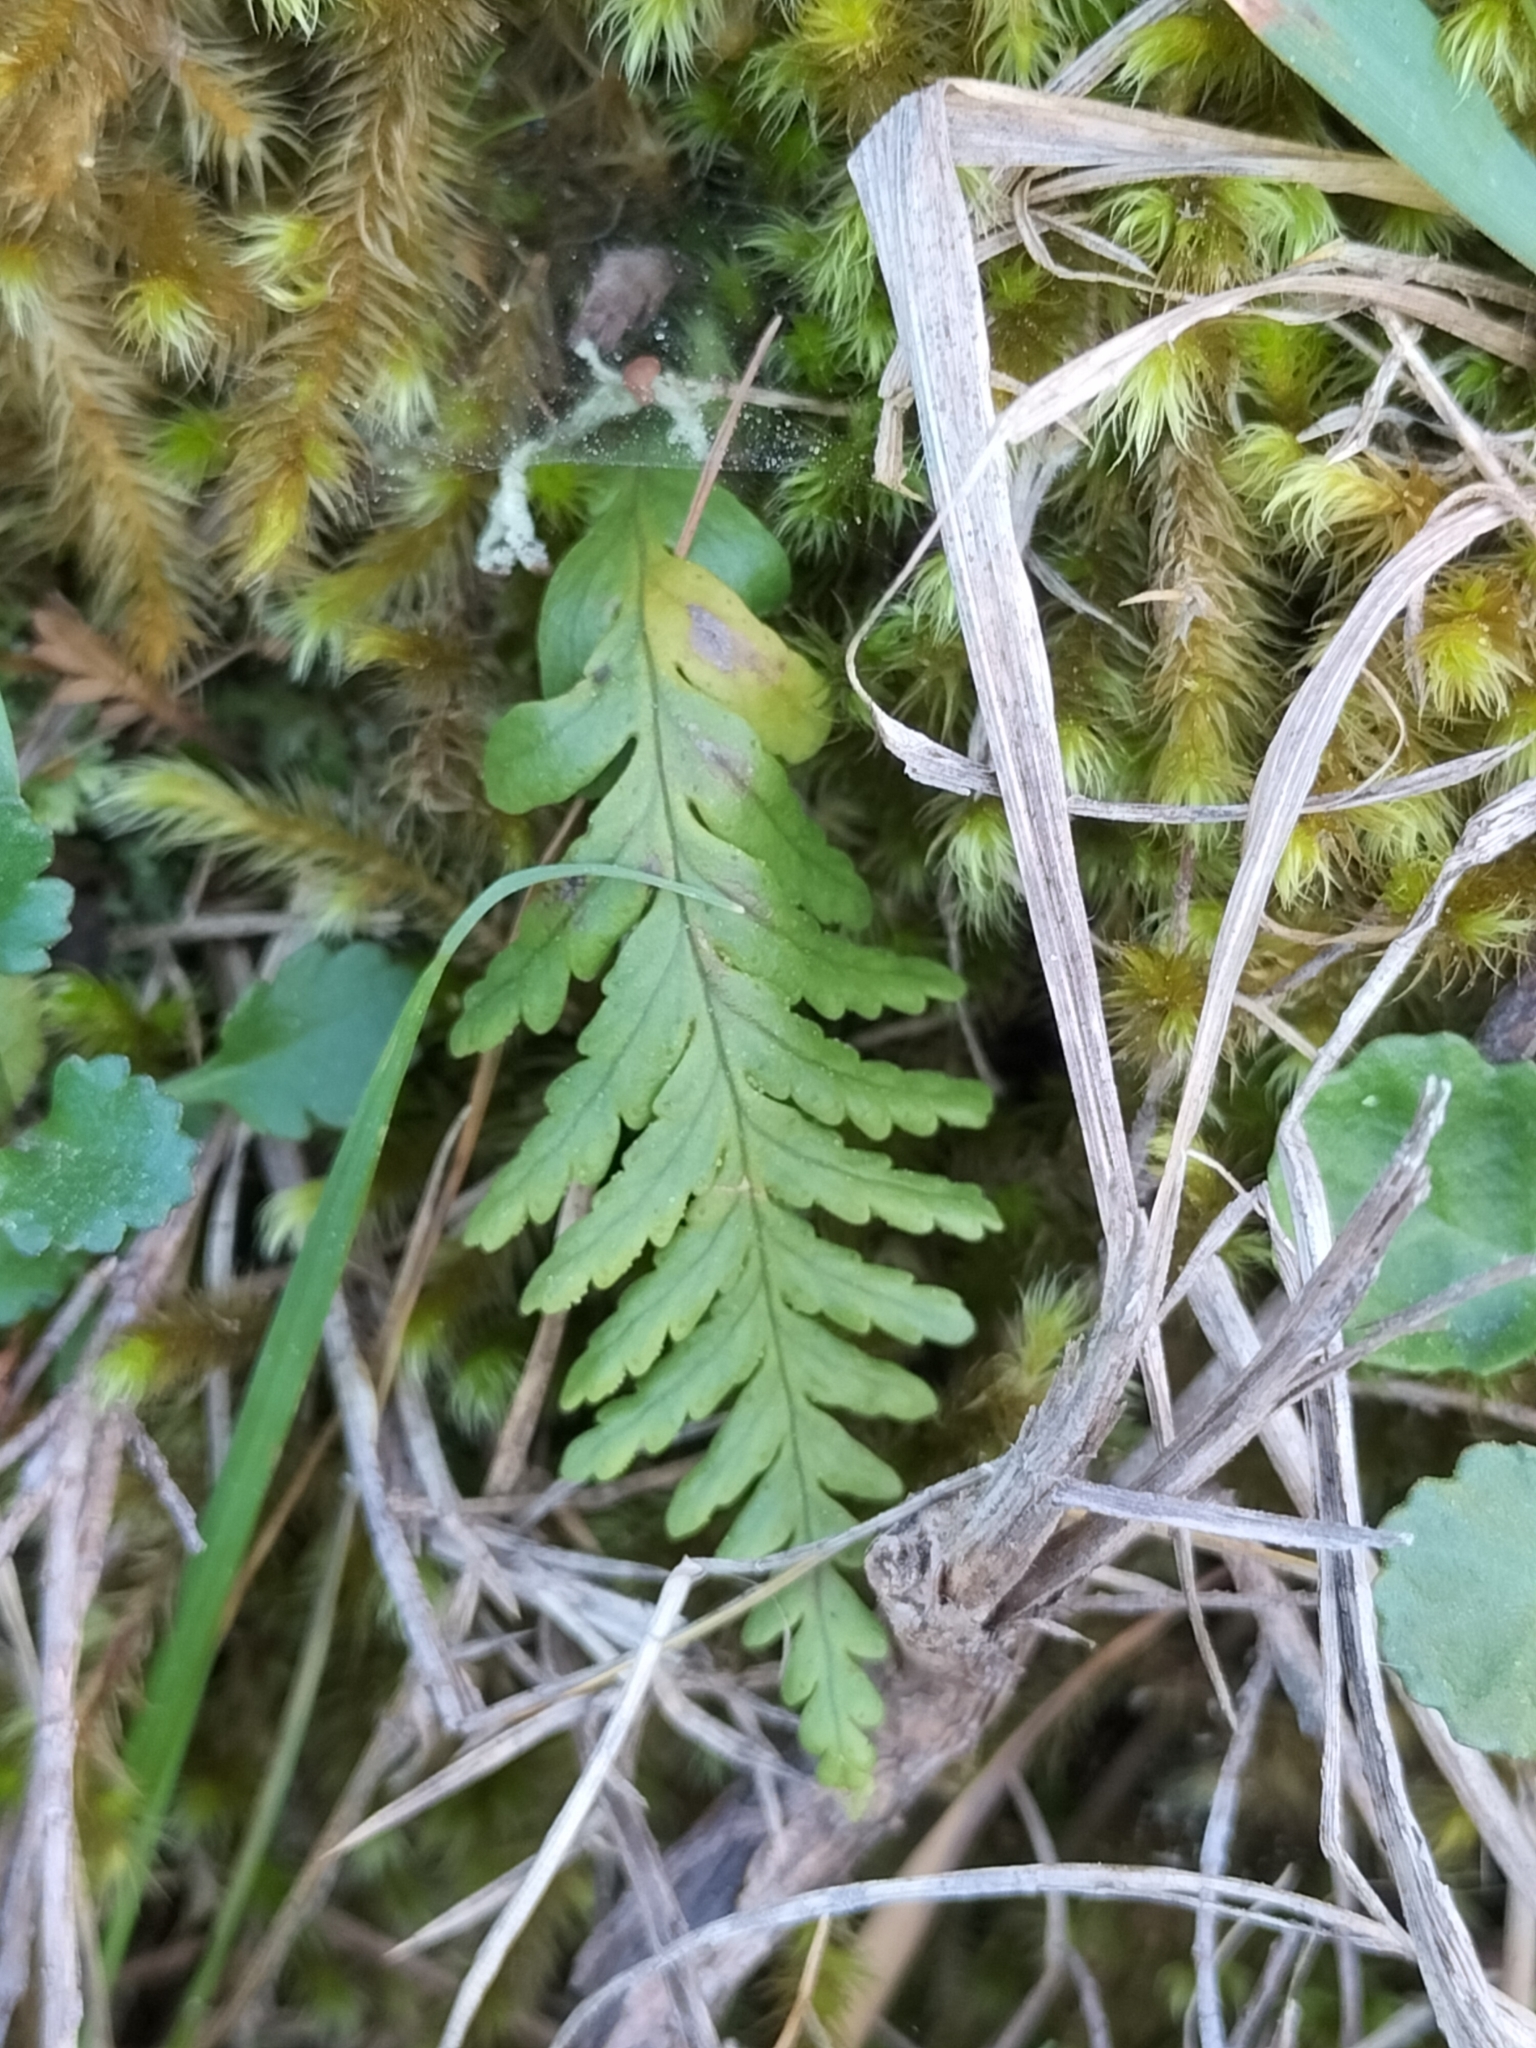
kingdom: Plantae
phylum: Tracheophyta
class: Polypodiopsida
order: Polypodiales
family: Polypodiaceae
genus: Notogrammitis
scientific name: Notogrammitis heterophylla
